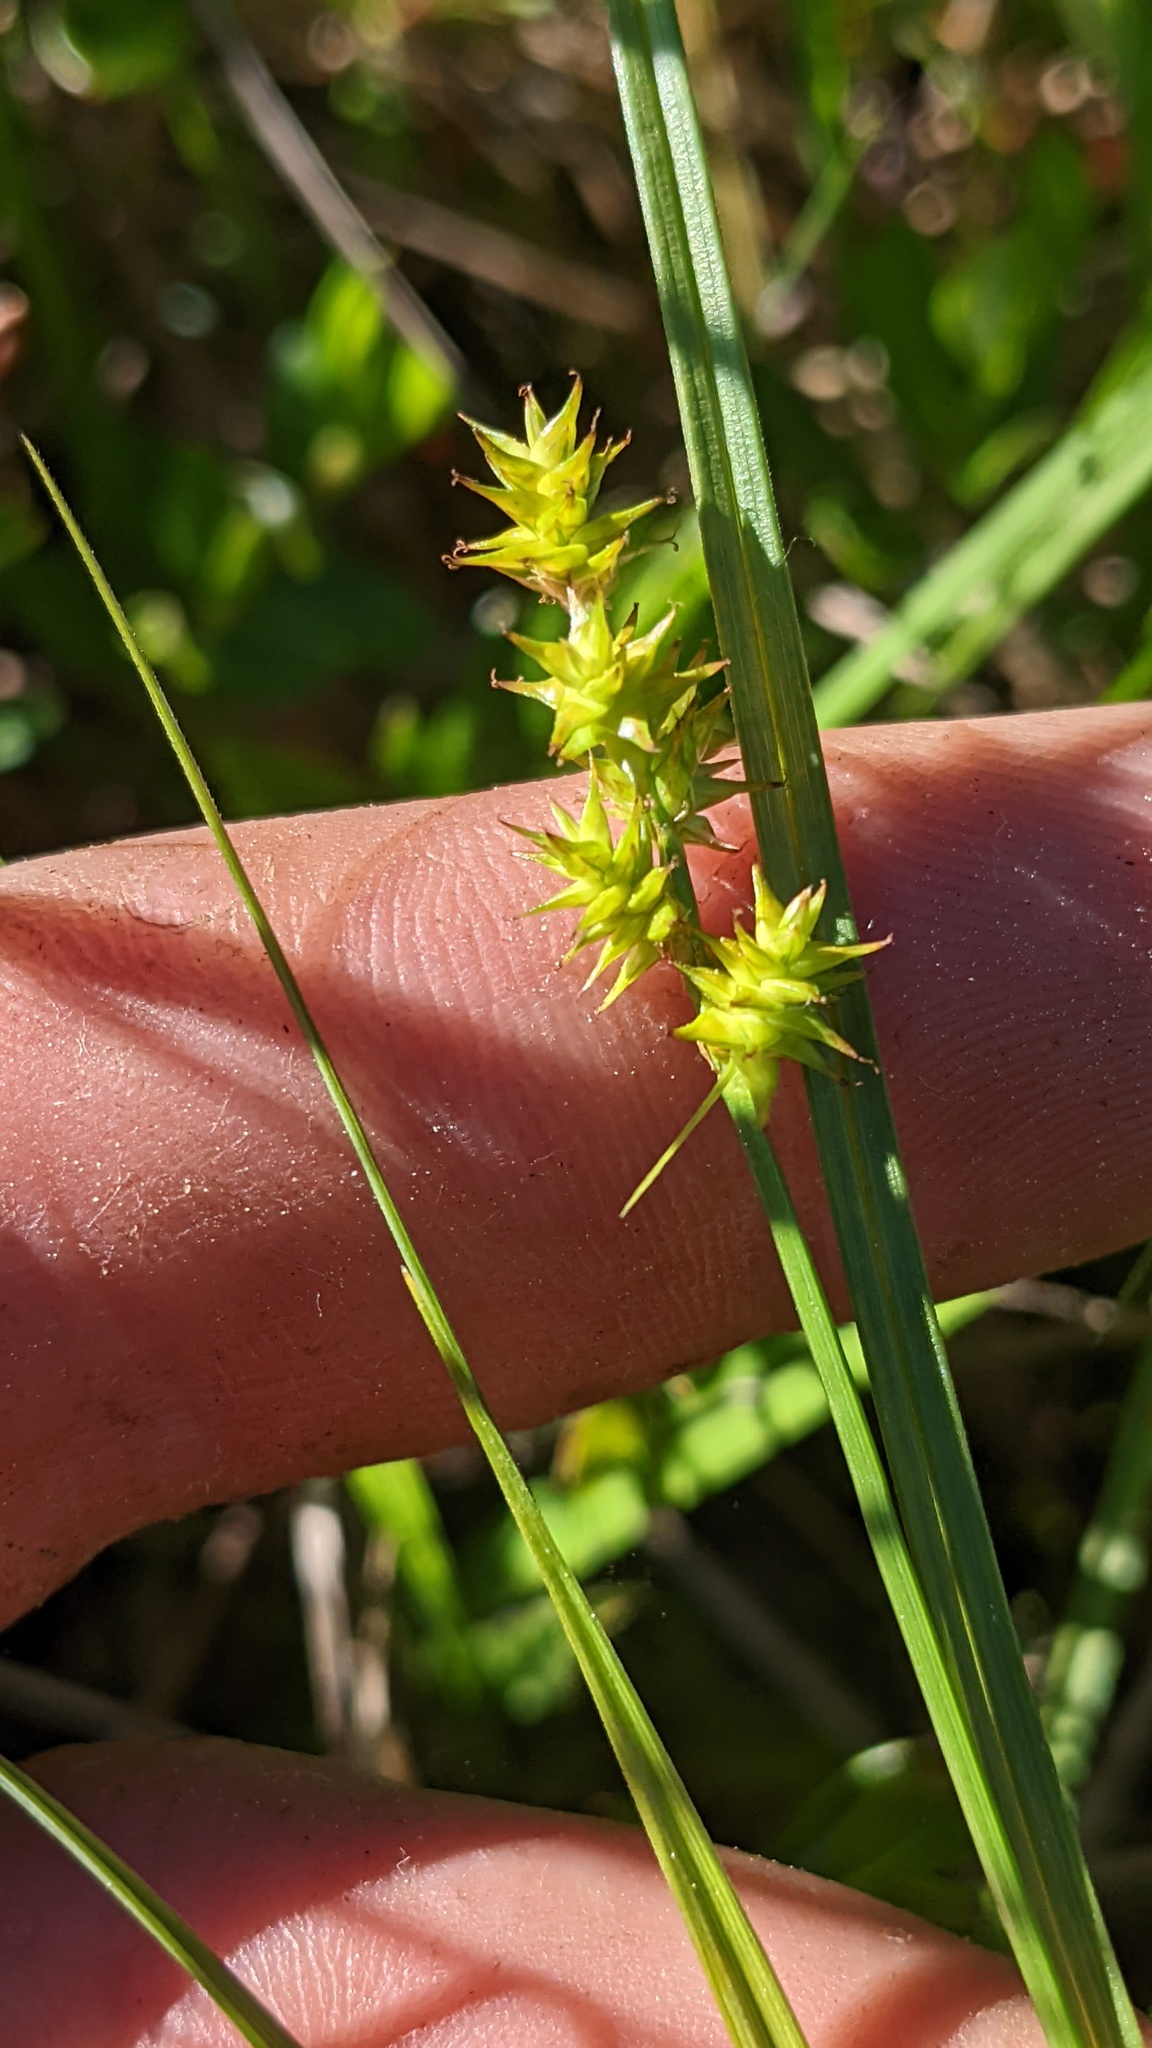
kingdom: Plantae
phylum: Tracheophyta
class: Liliopsida
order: Poales
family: Cyperaceae
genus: Carex
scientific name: Carex echinata
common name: Star sedge
